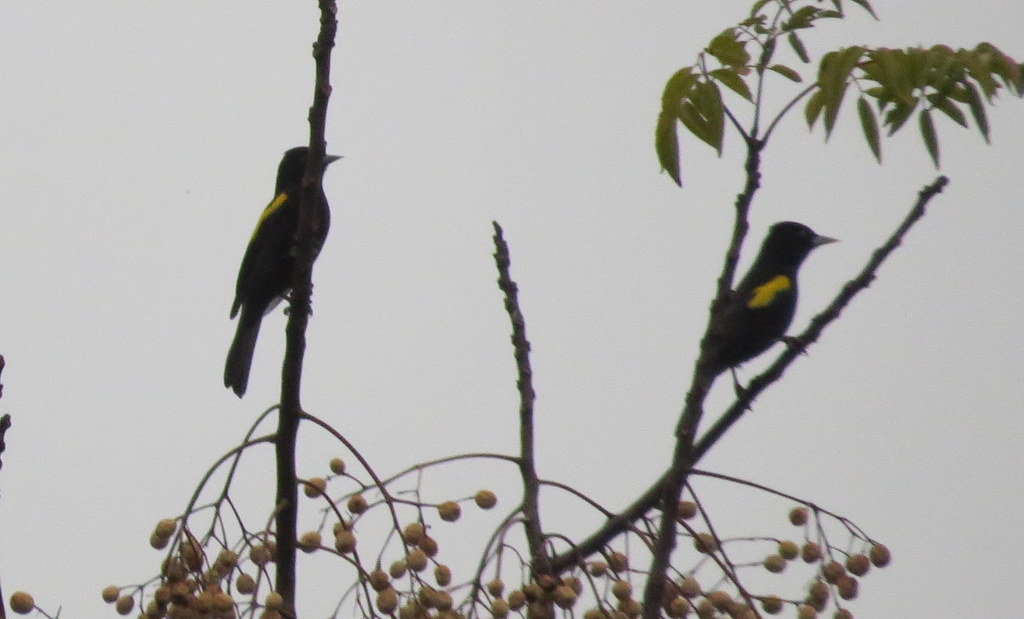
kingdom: Animalia
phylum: Chordata
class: Aves
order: Passeriformes
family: Icteridae
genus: Cacicus
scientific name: Cacicus chrysopterus
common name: Golden-winged cacique
